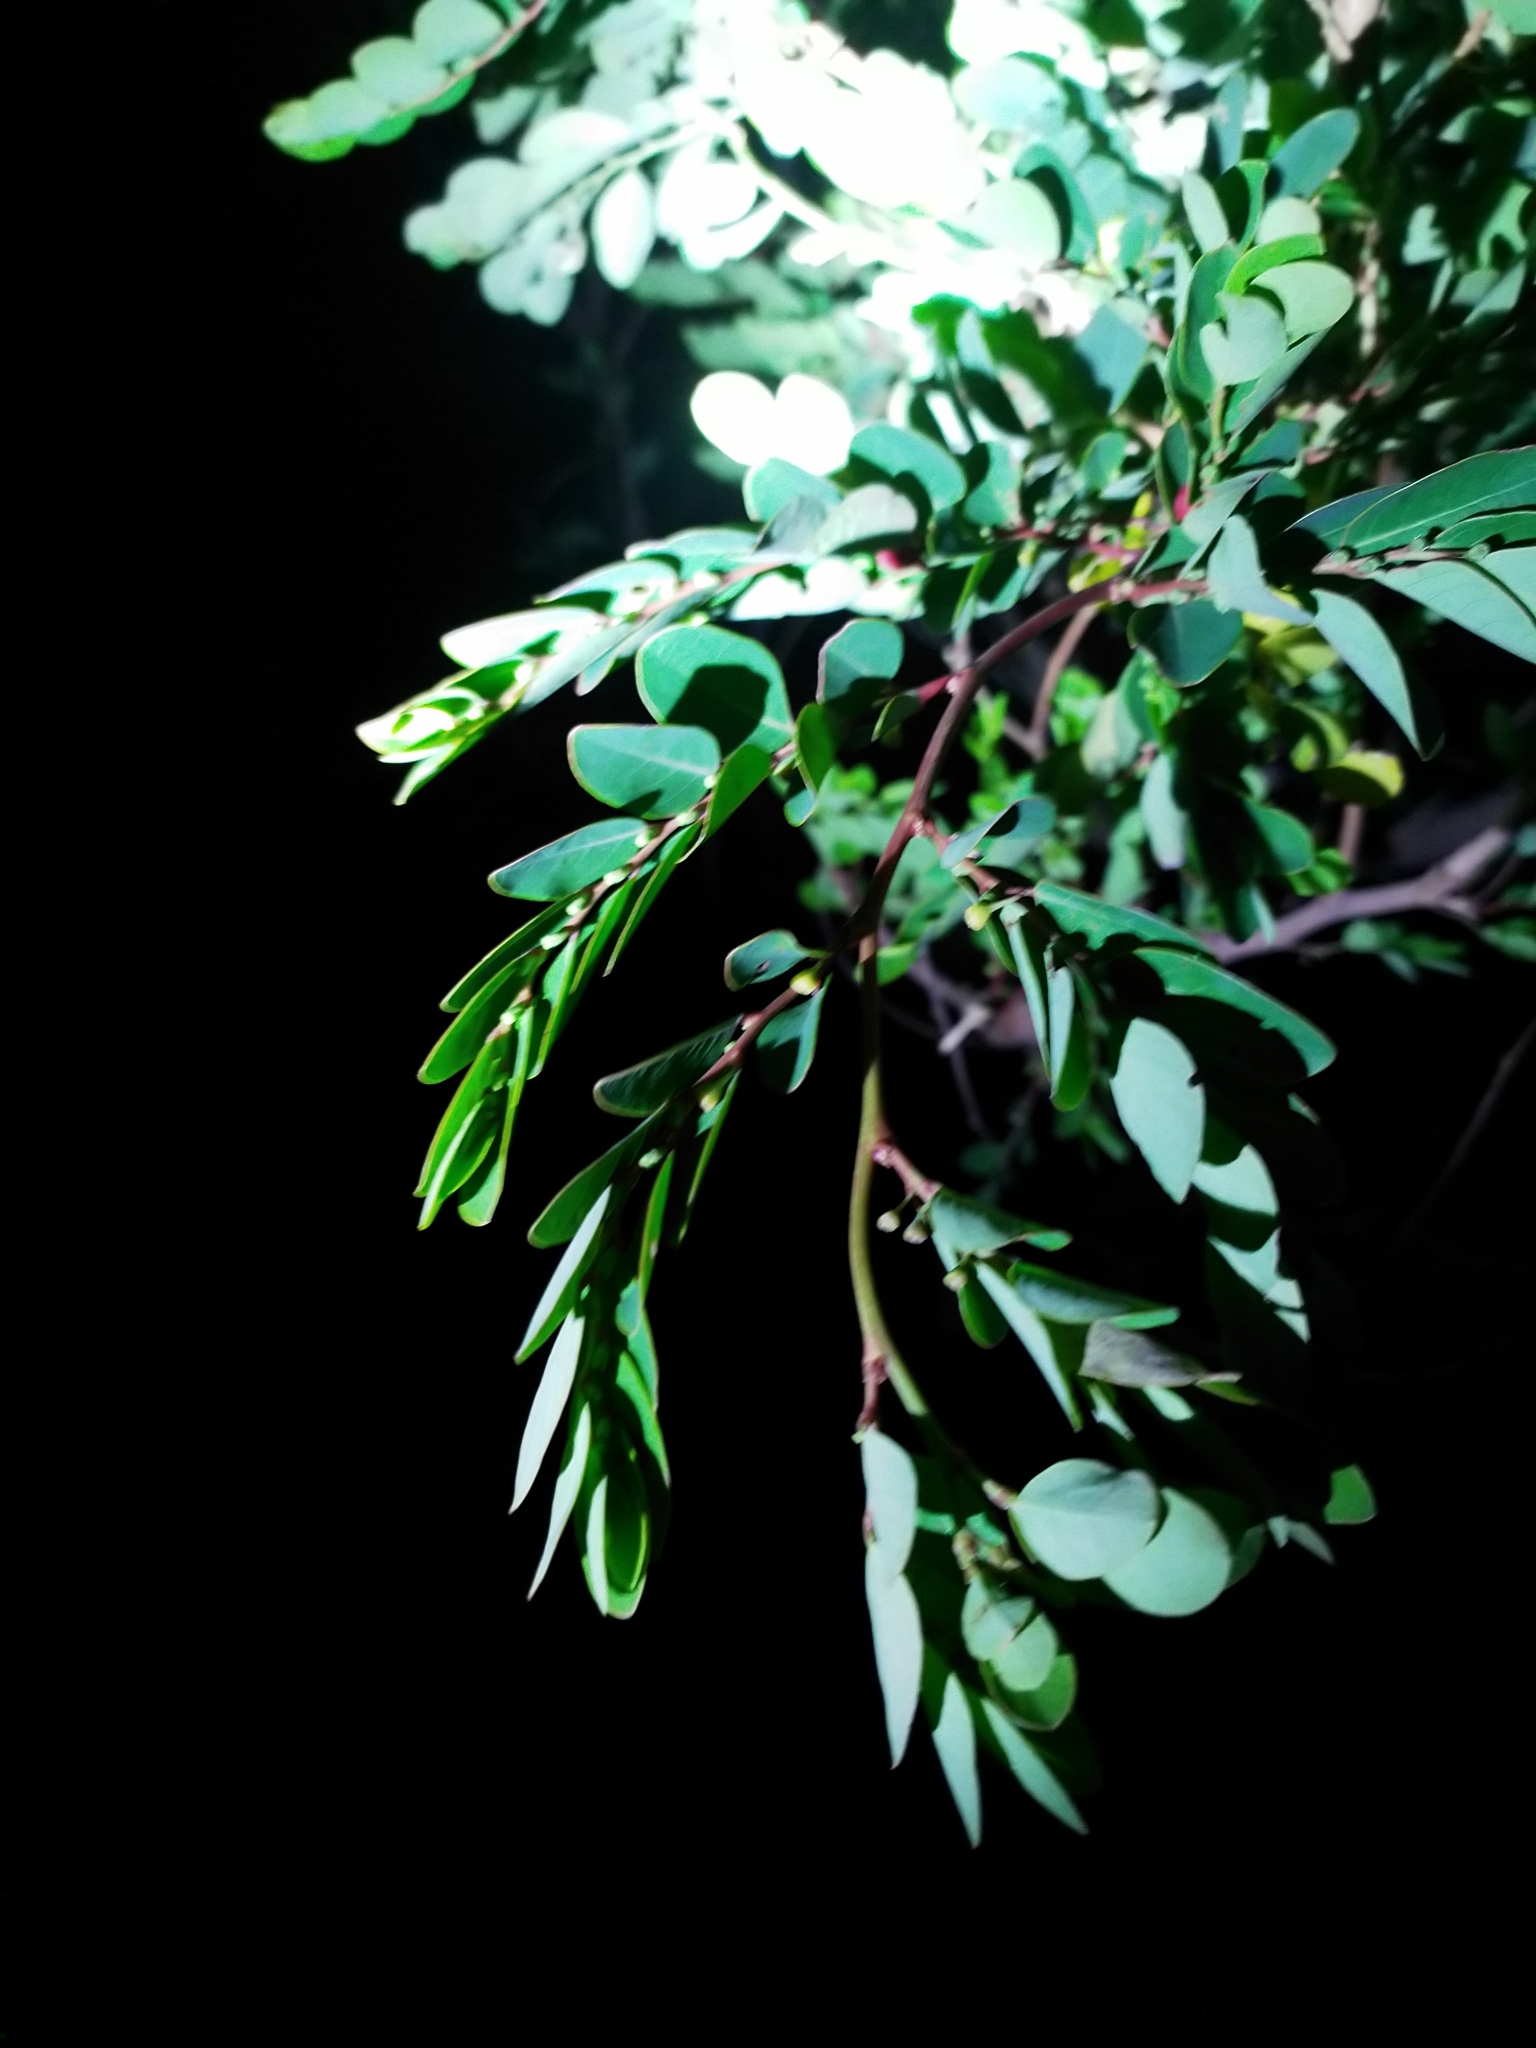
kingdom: Plantae
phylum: Tracheophyta
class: Magnoliopsida
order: Malpighiales
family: Phyllanthaceae
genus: Breynia
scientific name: Breynia vitis-idaea
